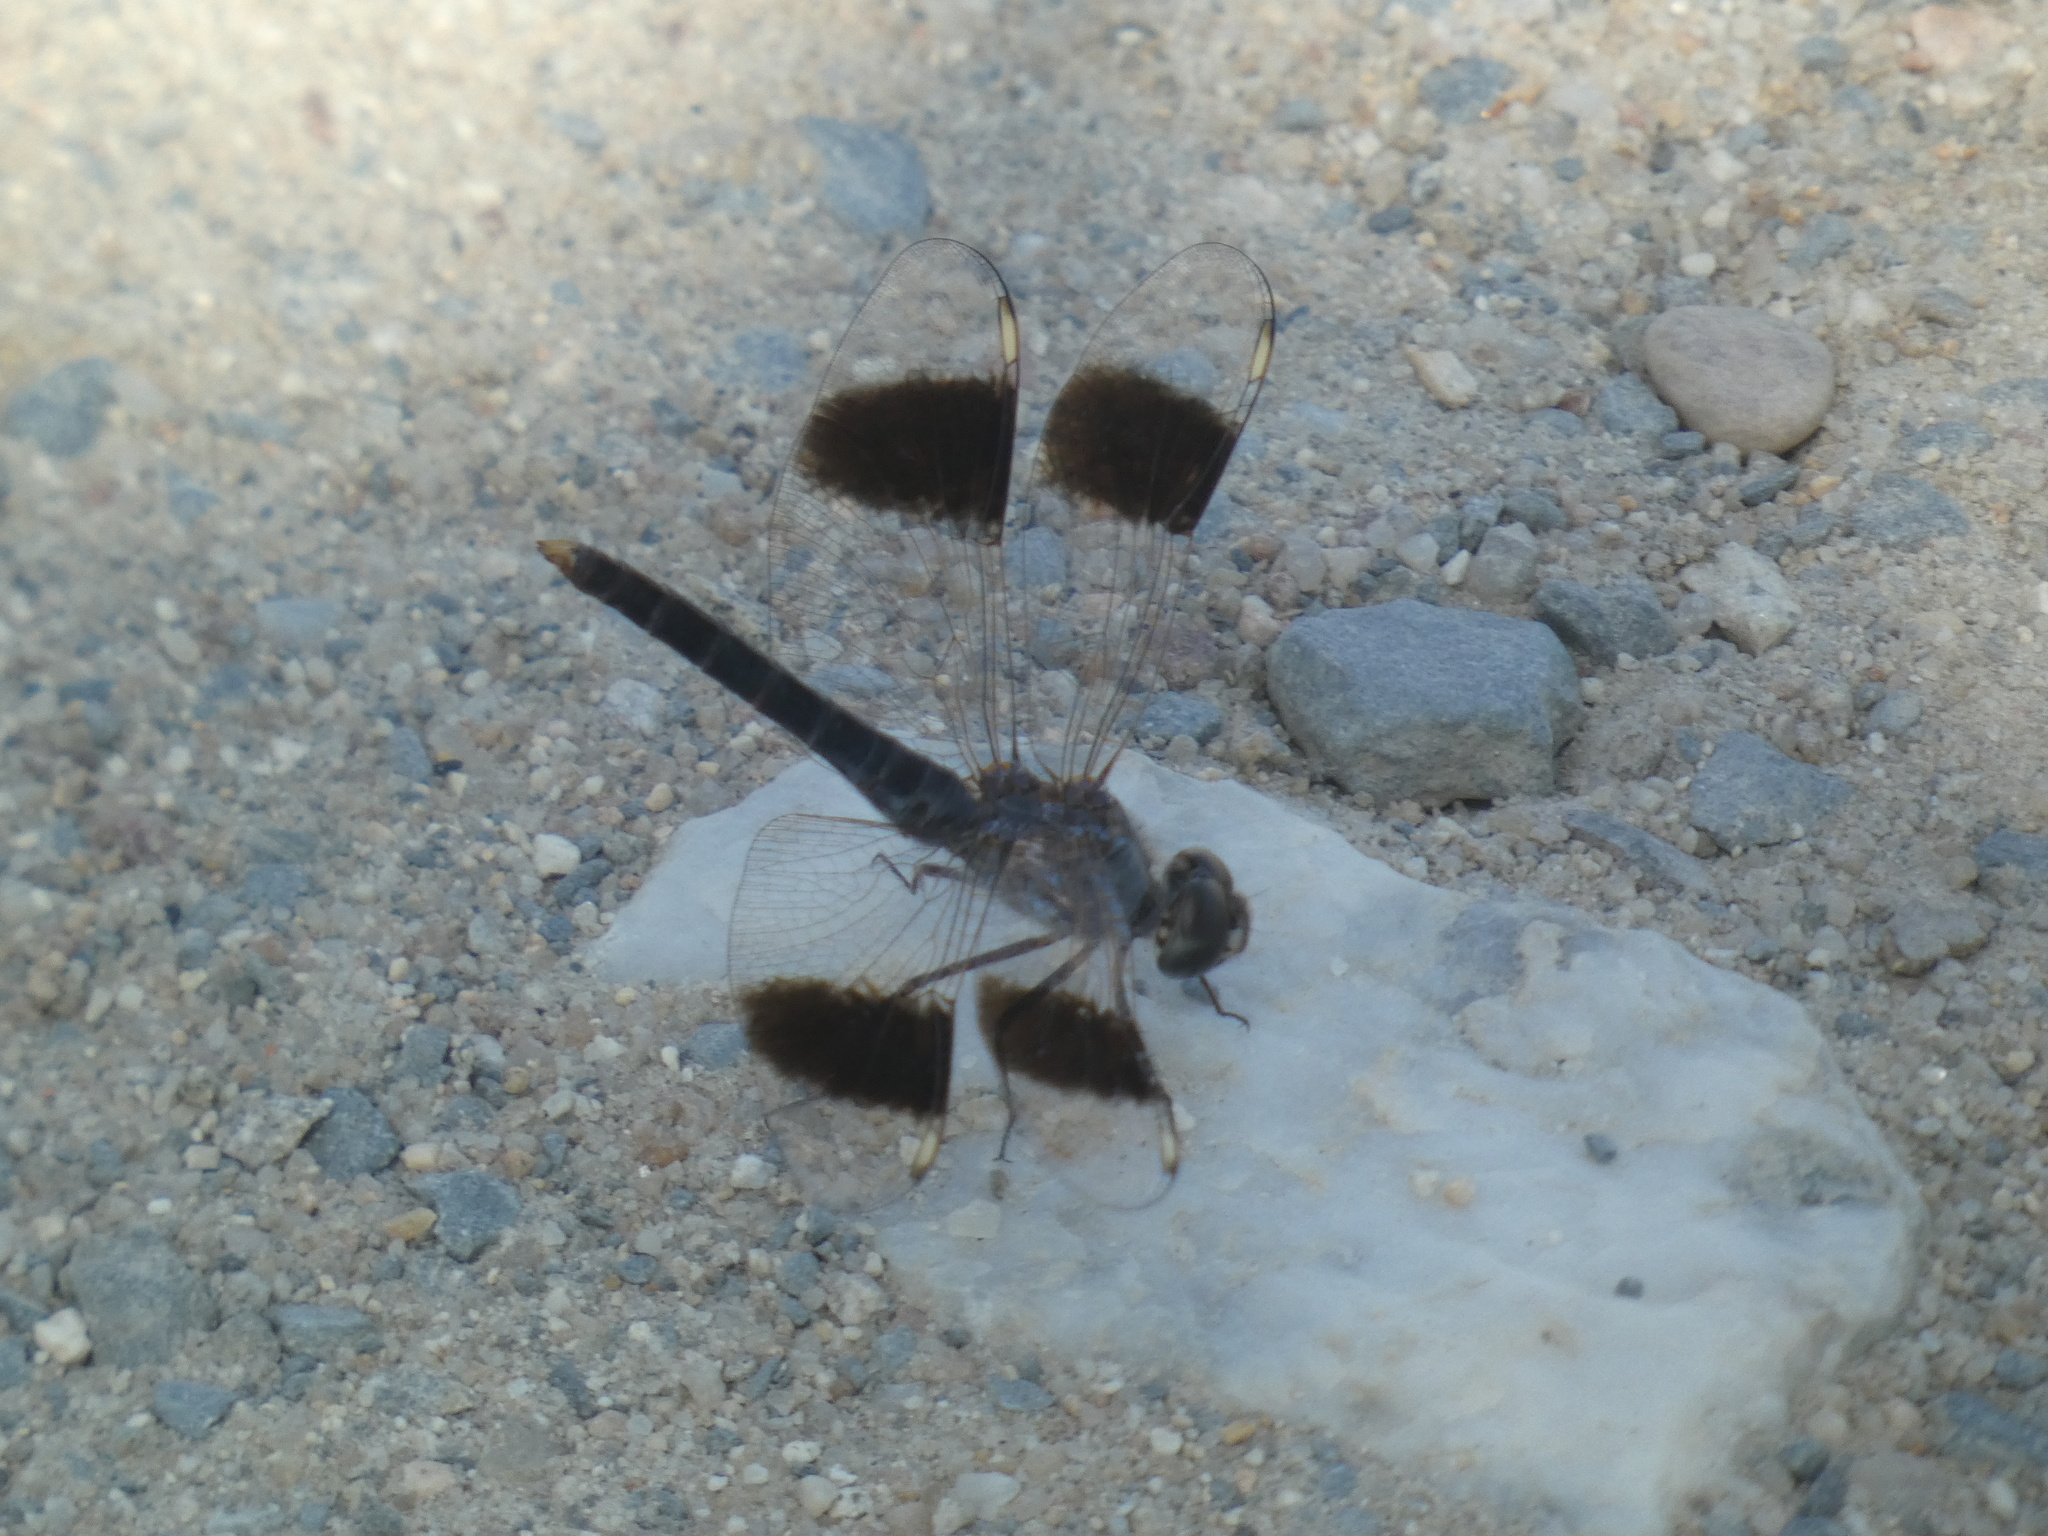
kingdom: Animalia
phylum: Arthropoda
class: Insecta
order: Odonata
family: Libellulidae
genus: Brachythemis
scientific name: Brachythemis impartita
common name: Banded groundling
